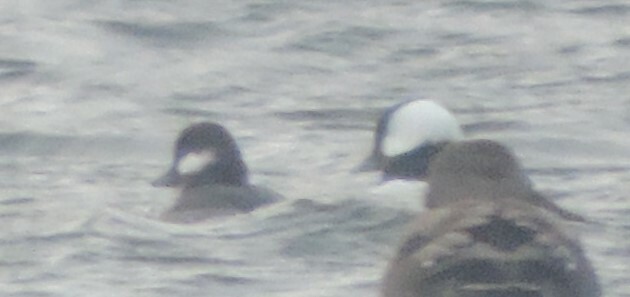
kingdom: Animalia
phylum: Chordata
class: Aves
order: Anseriformes
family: Anatidae
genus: Bucephala
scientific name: Bucephala albeola
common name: Bufflehead
